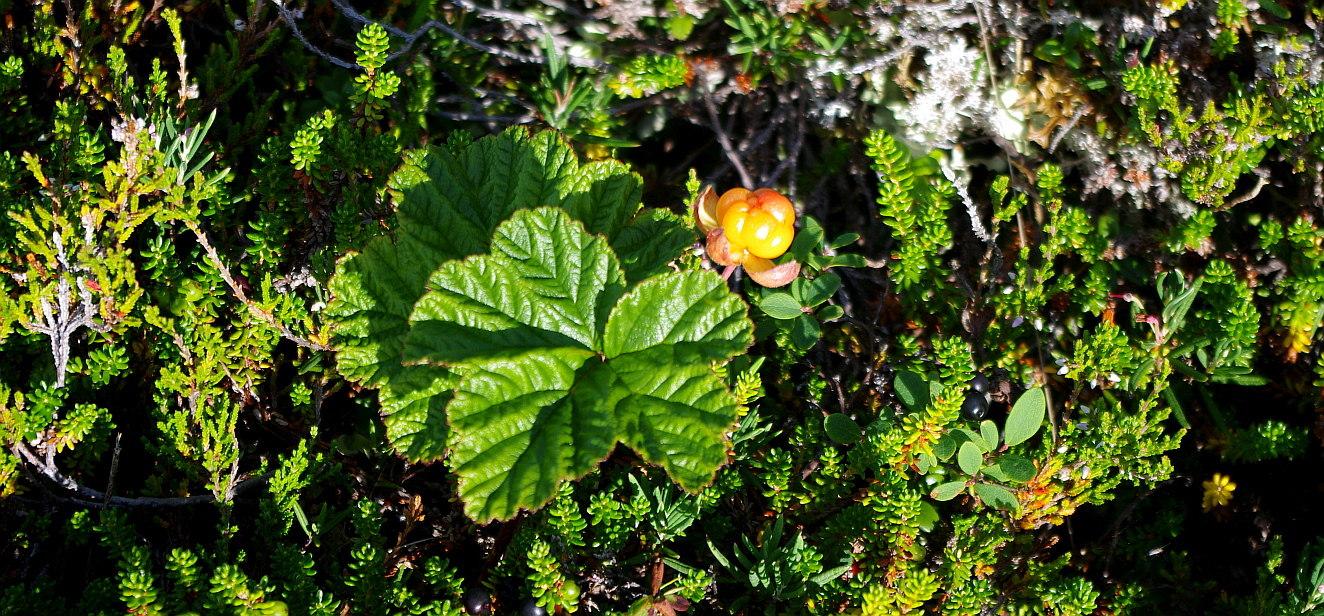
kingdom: Plantae
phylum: Tracheophyta
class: Magnoliopsida
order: Rosales
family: Rosaceae
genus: Rubus
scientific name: Rubus chamaemorus
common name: Cloudberry
